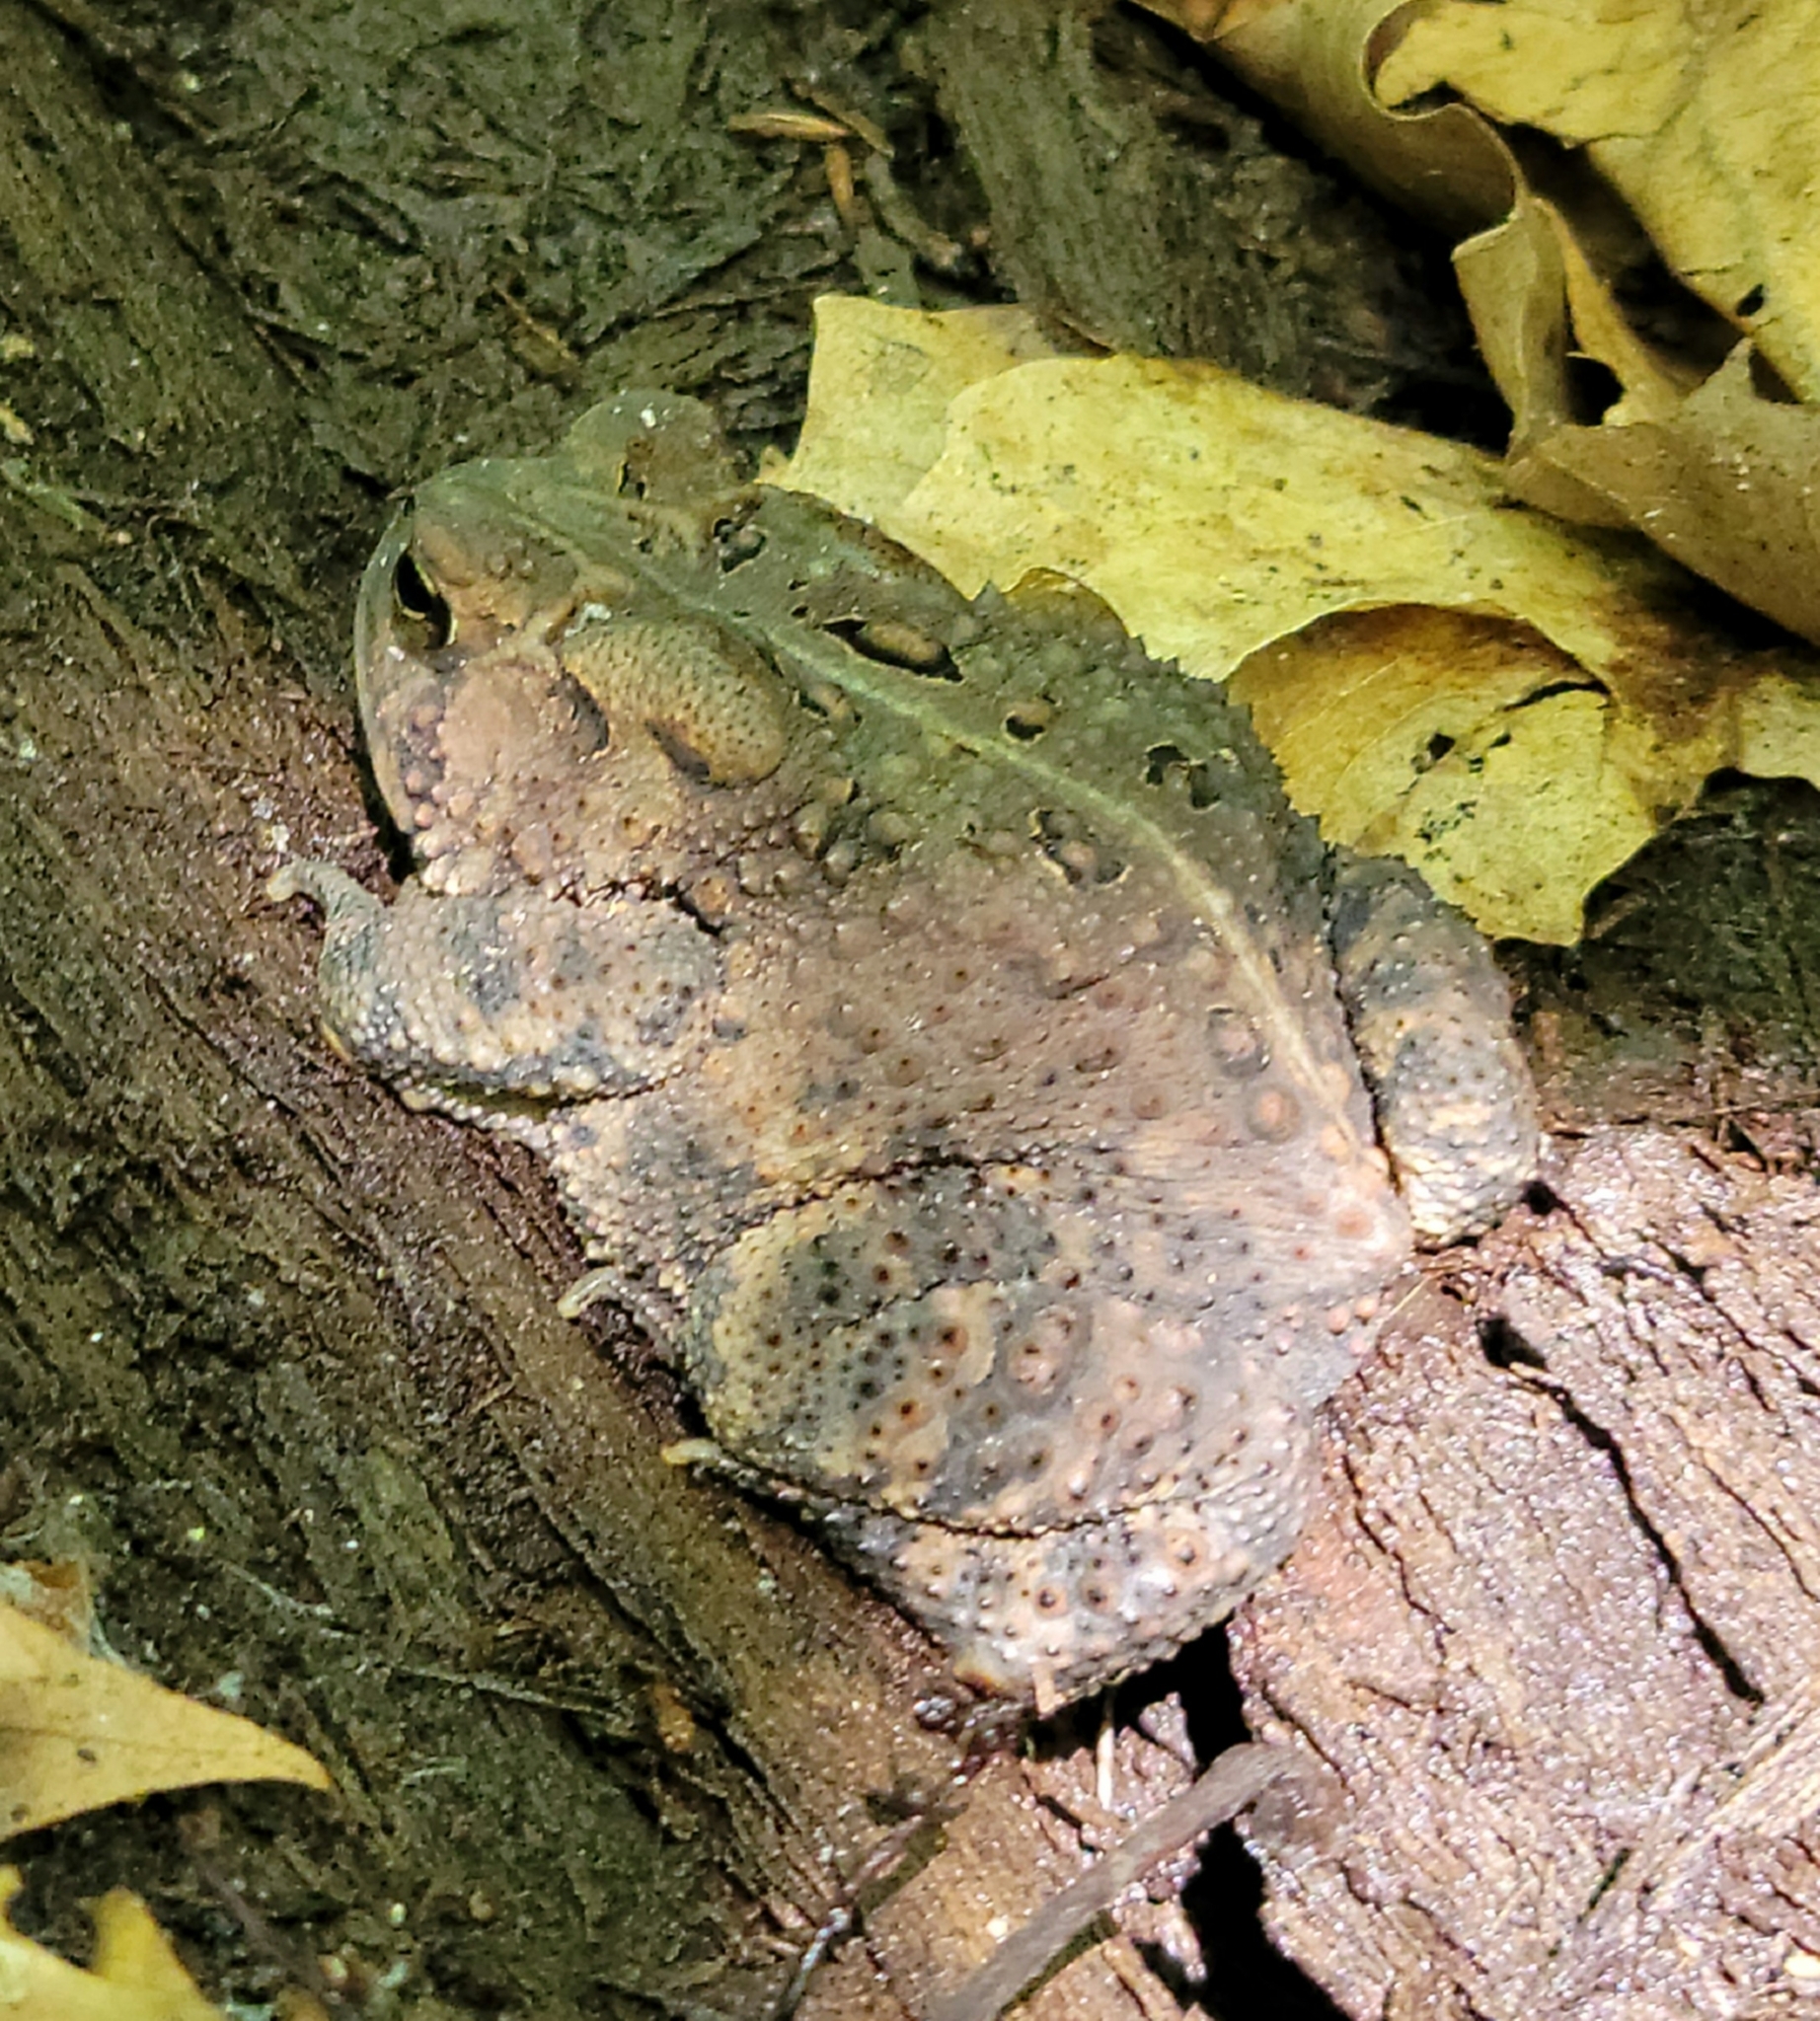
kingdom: Animalia
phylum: Chordata
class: Amphibia
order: Anura
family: Bufonidae
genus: Anaxyrus
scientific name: Anaxyrus americanus
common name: American toad
